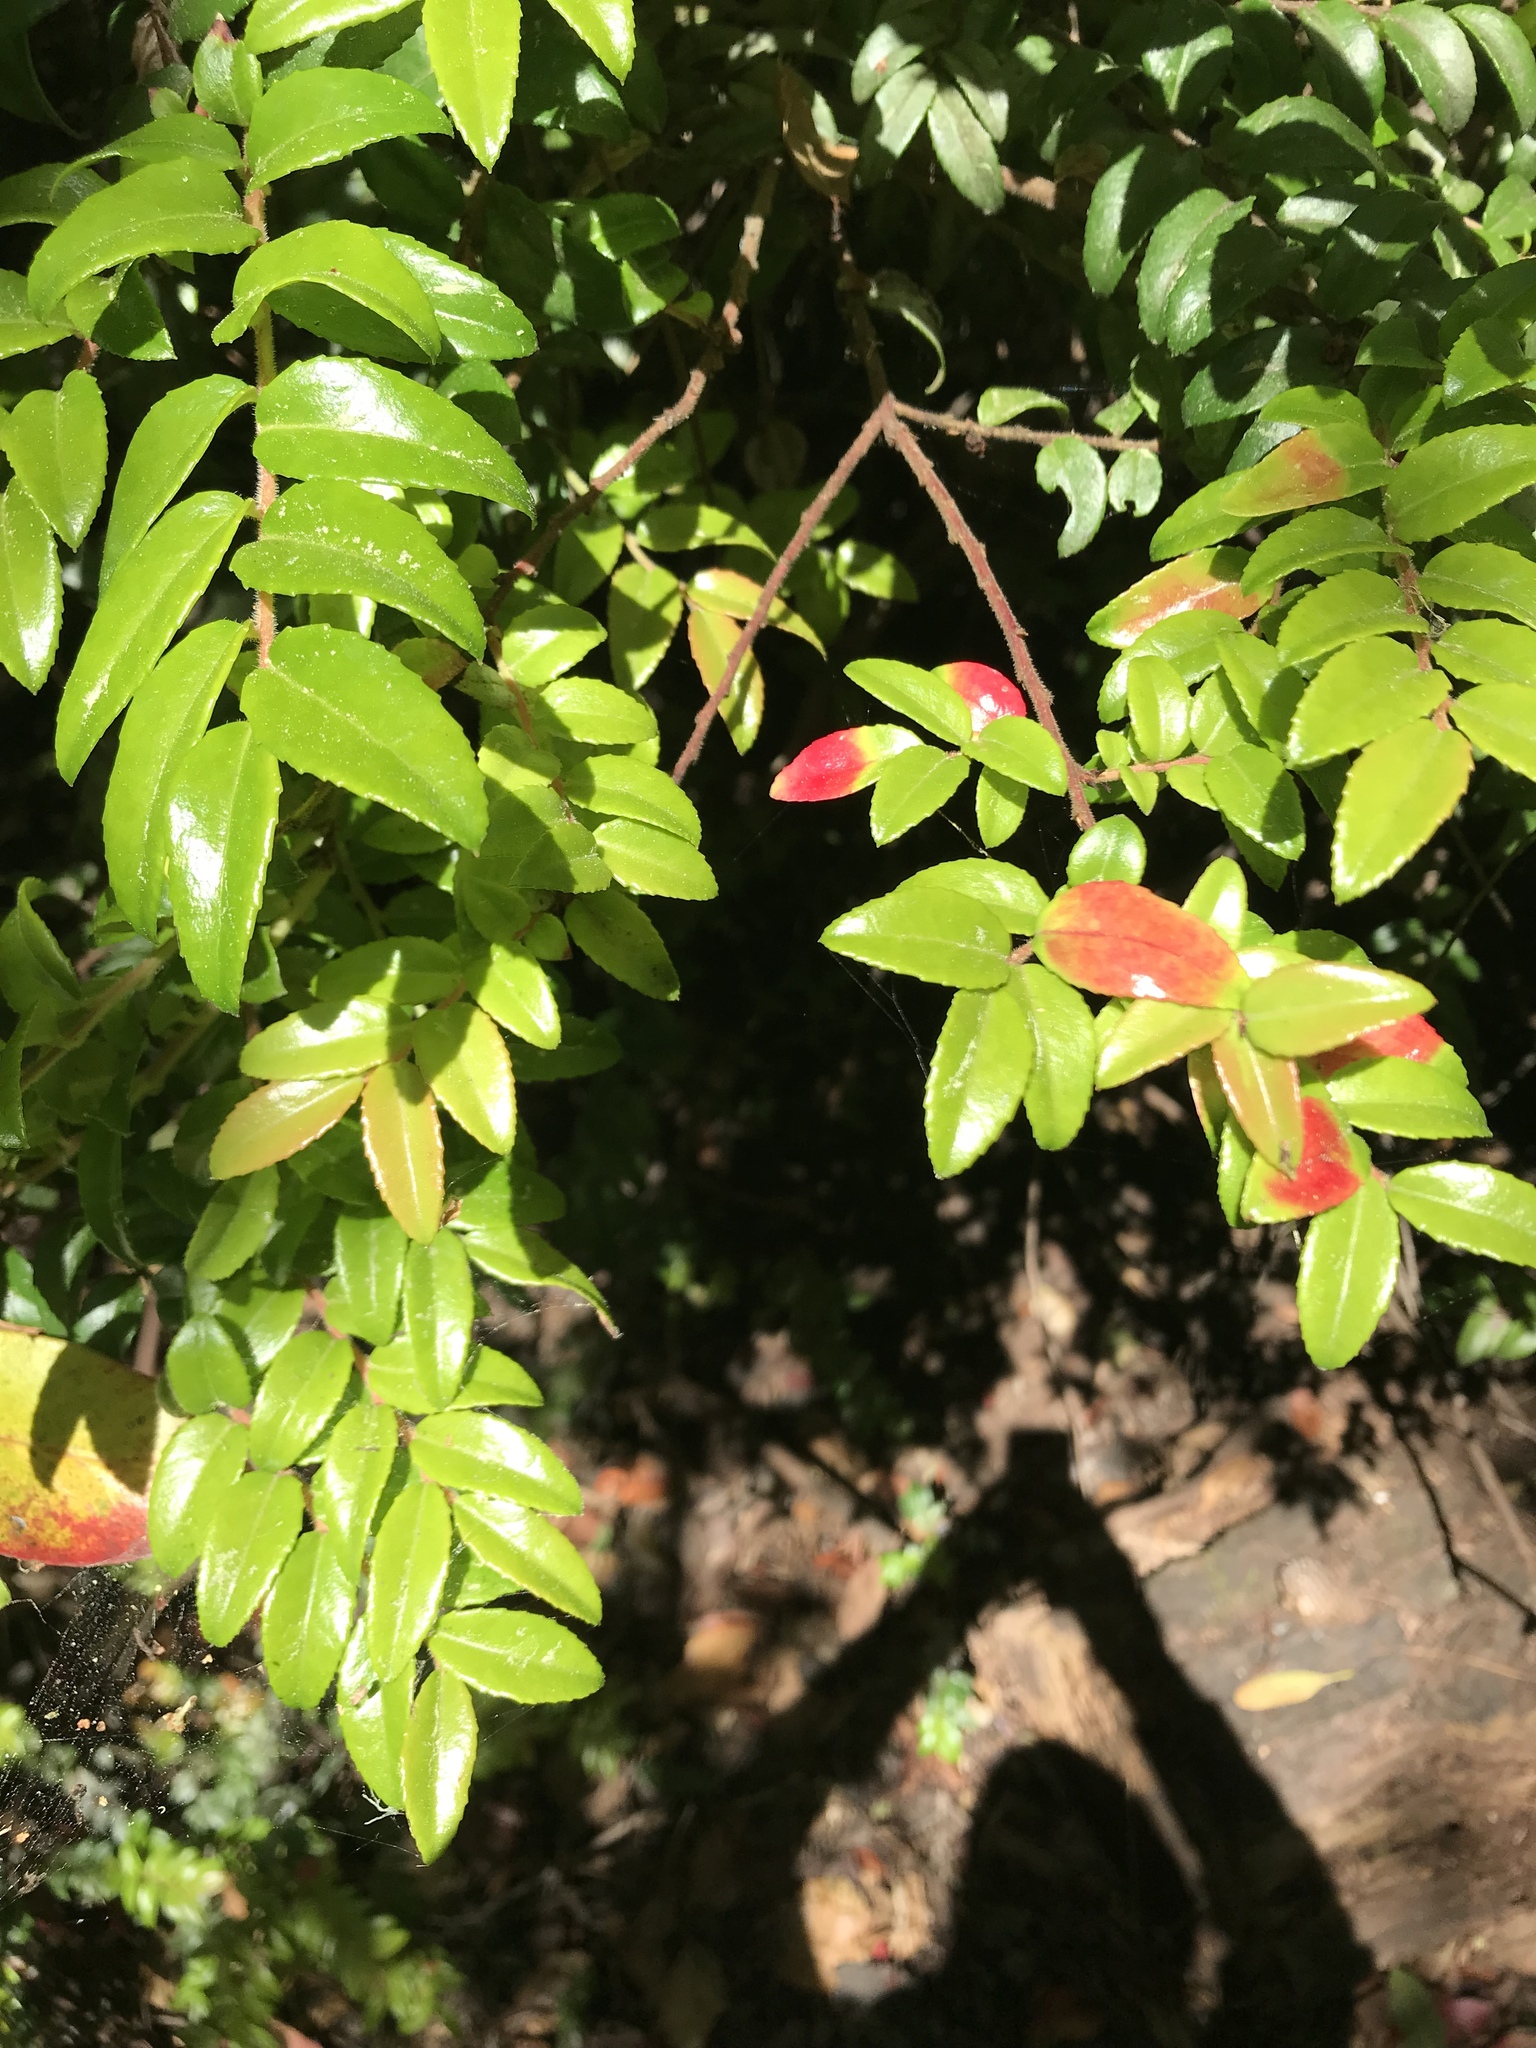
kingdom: Plantae
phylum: Tracheophyta
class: Magnoliopsida
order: Ericales
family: Ericaceae
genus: Vaccinium
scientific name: Vaccinium ovatum
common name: California-huckleberry
